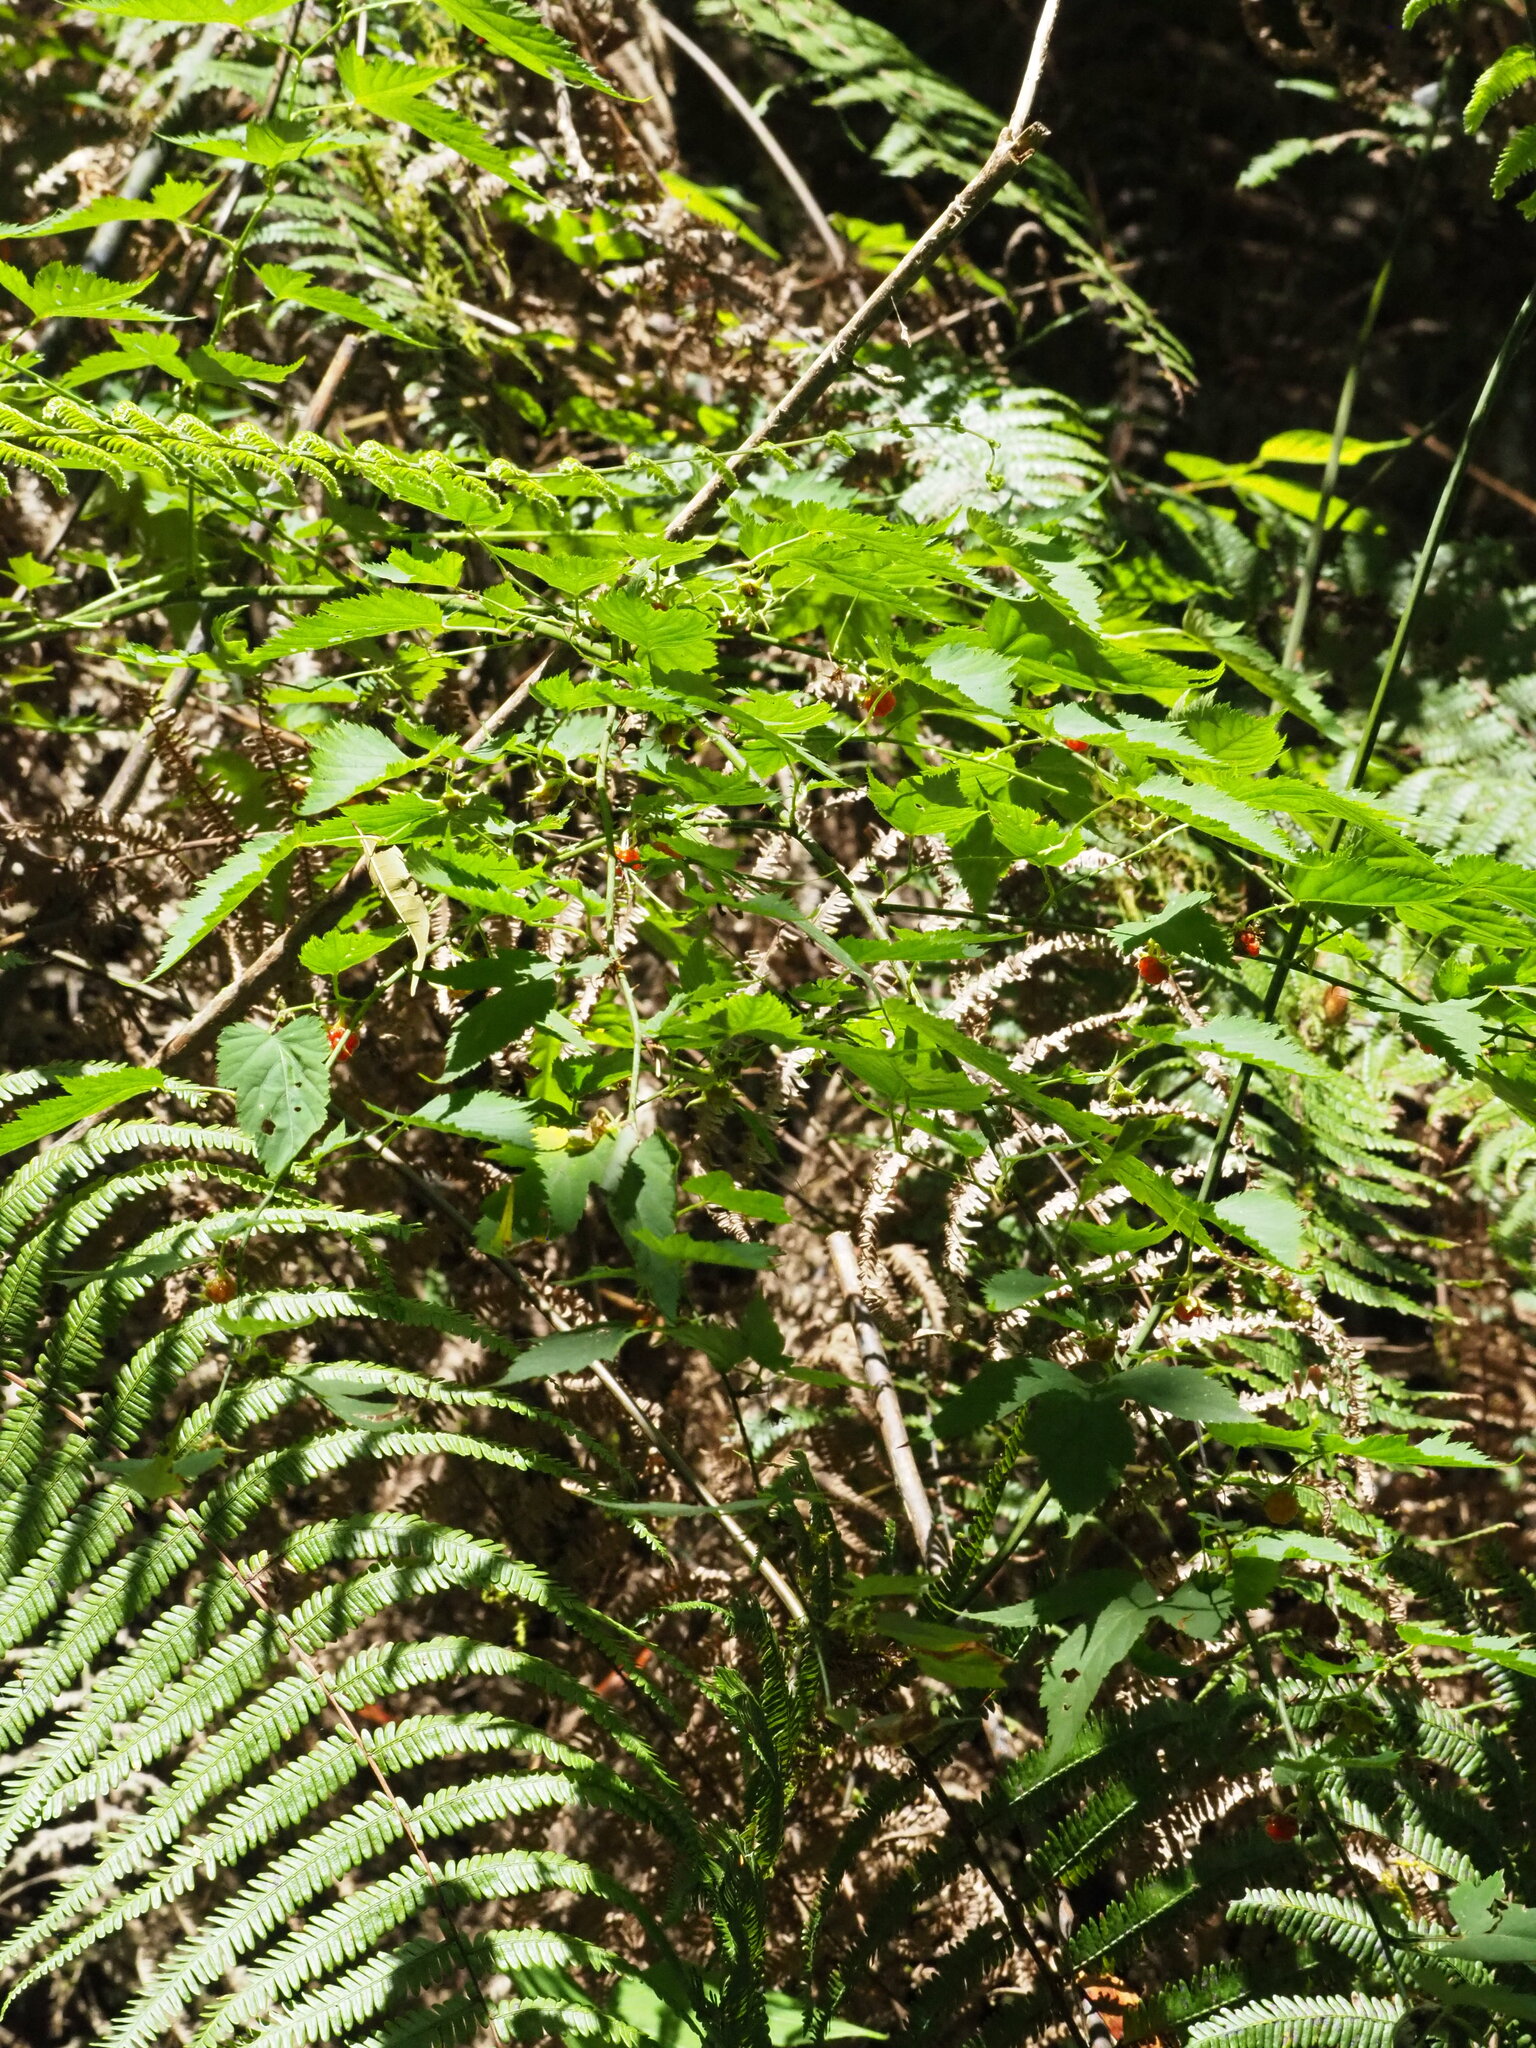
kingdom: Plantae
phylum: Tracheophyta
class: Magnoliopsida
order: Rosales
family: Rosaceae
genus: Rubus
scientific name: Rubus corchorifolius
